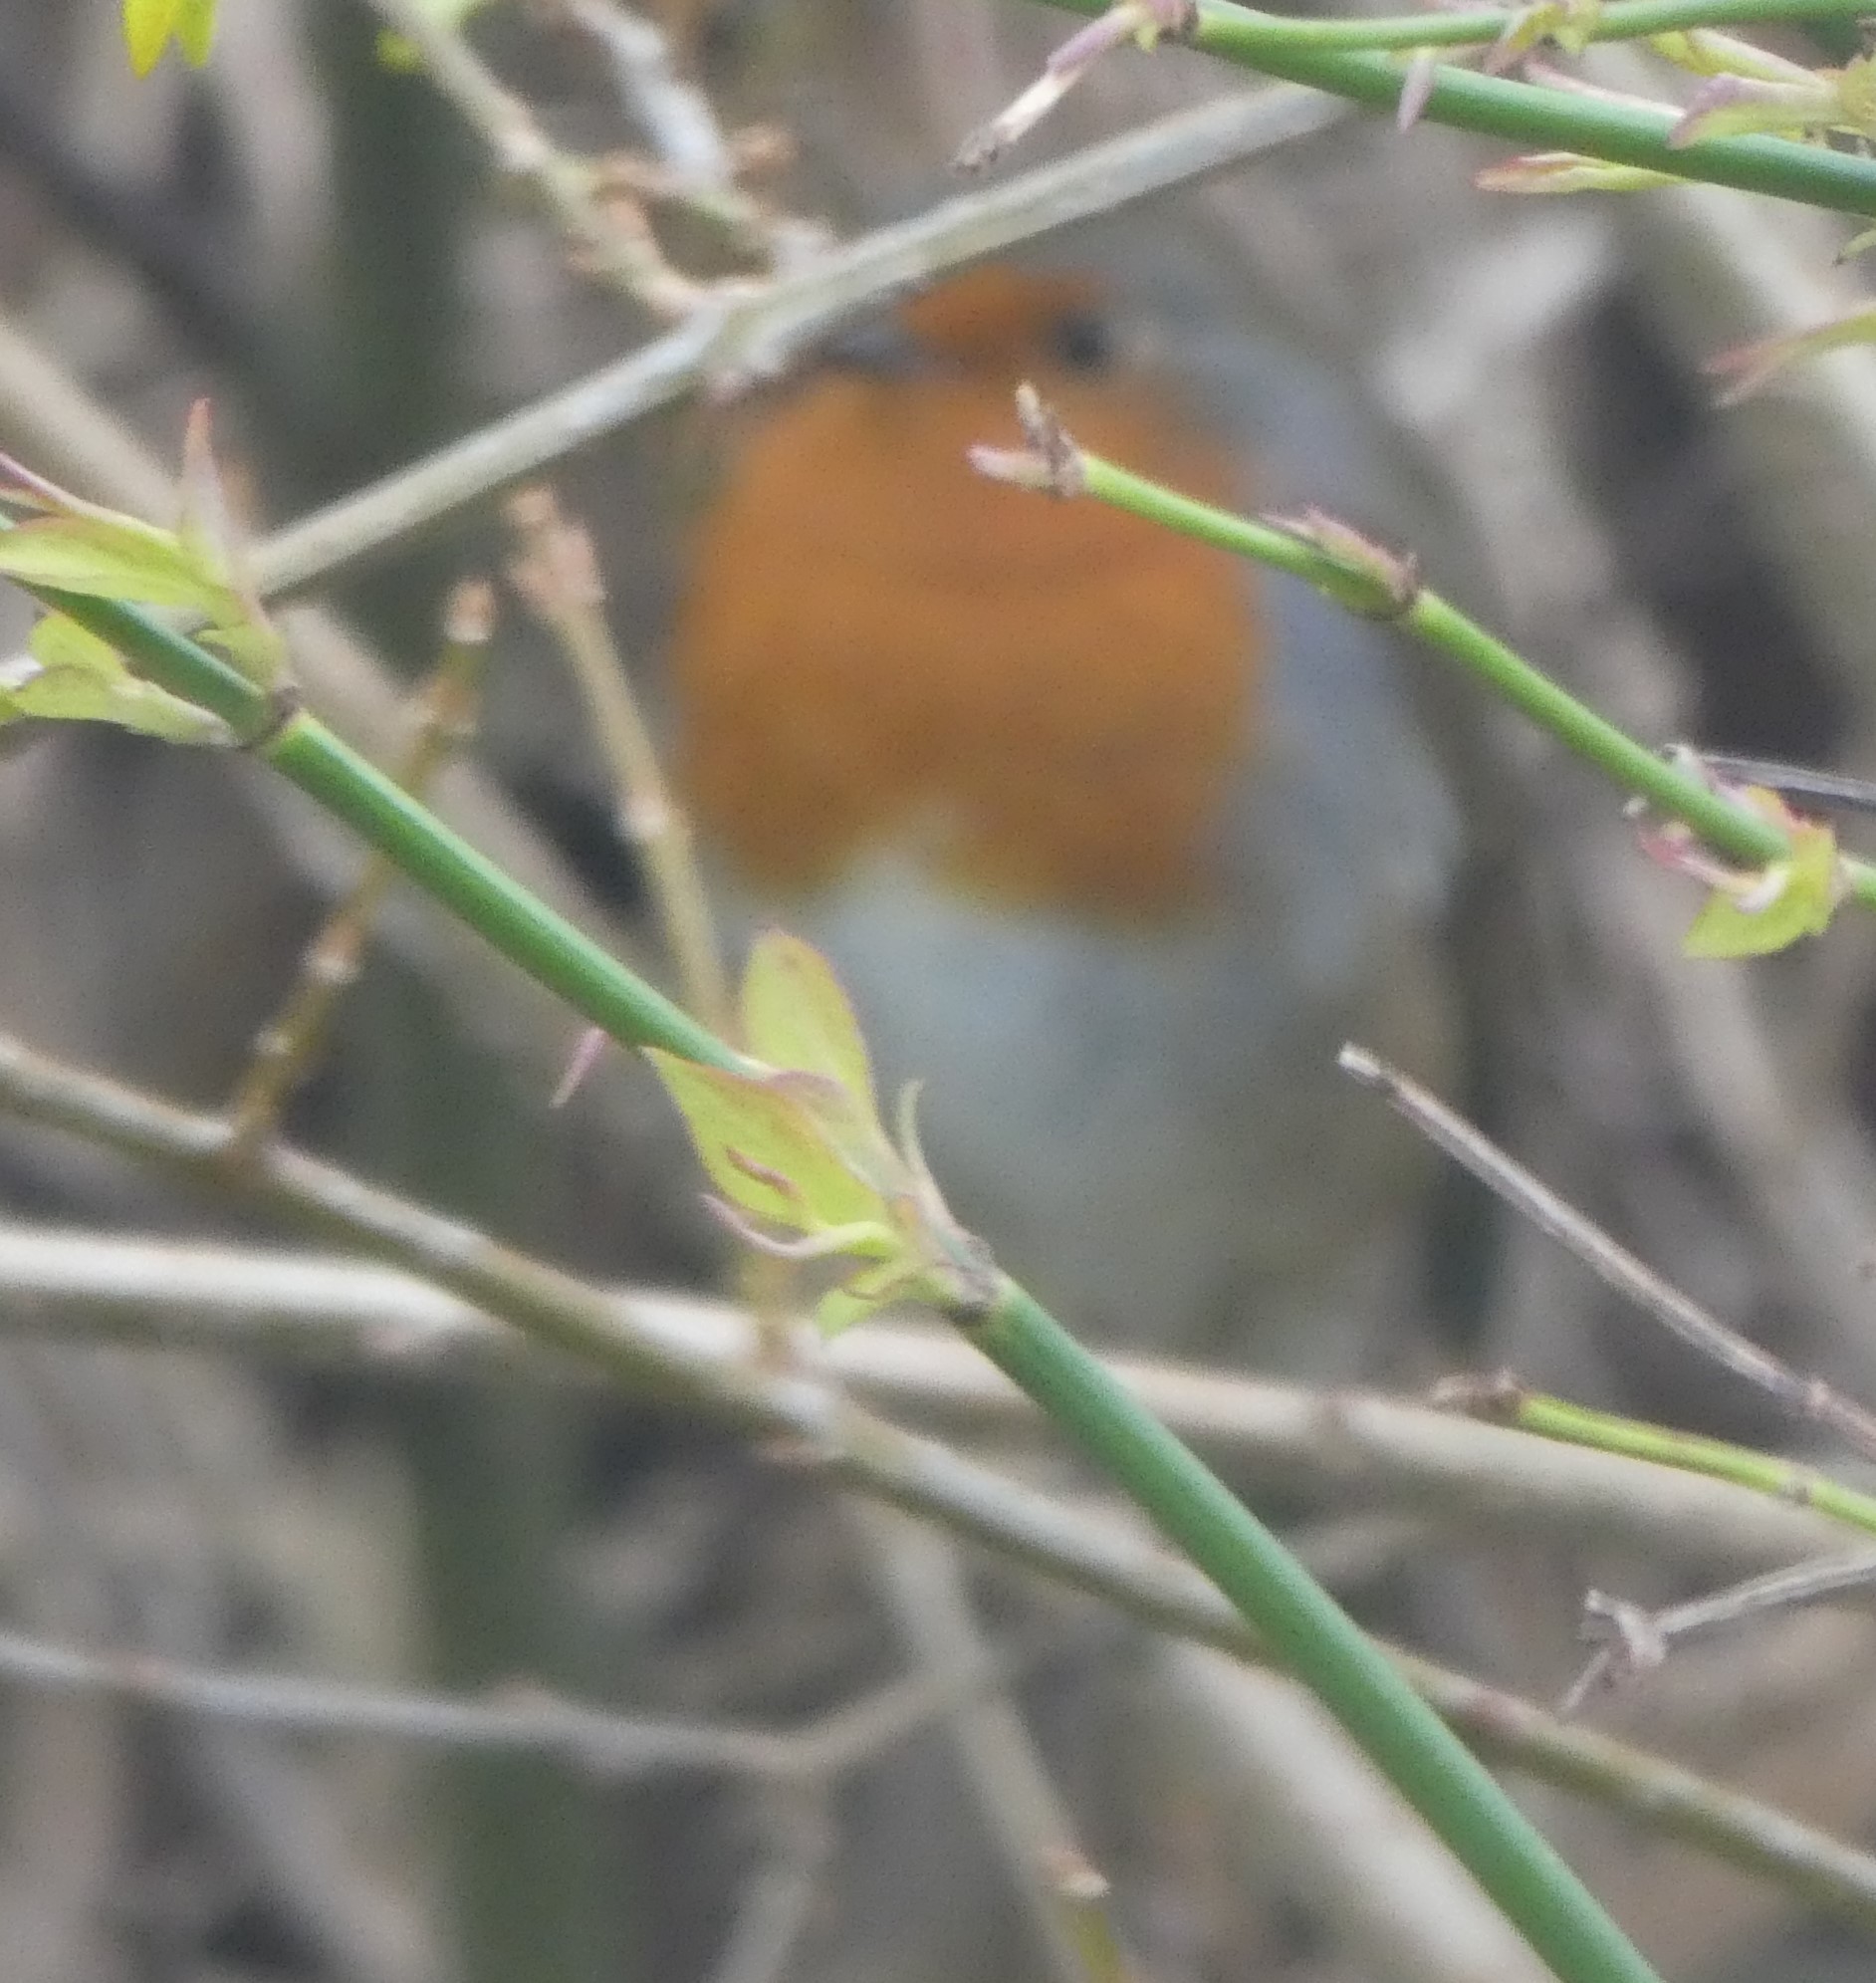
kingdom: Animalia
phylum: Chordata
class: Aves
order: Passeriformes
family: Muscicapidae
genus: Erithacus
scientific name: Erithacus rubecula
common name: European robin
